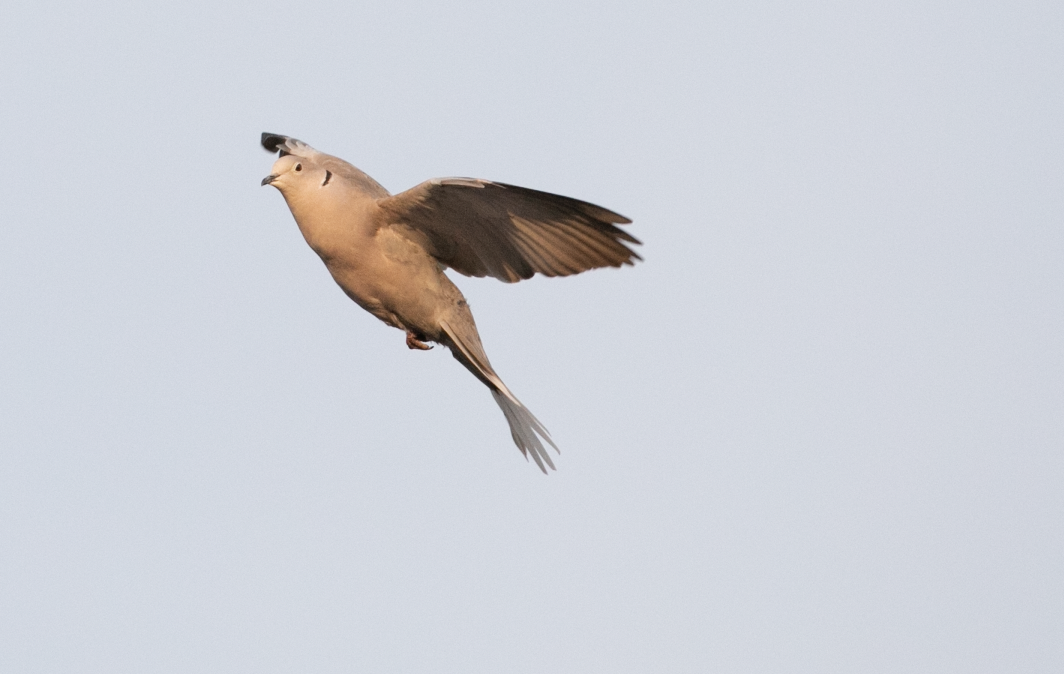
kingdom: Animalia
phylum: Chordata
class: Aves
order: Columbiformes
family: Columbidae
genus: Streptopelia
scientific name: Streptopelia decaocto
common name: Eurasian collared dove
